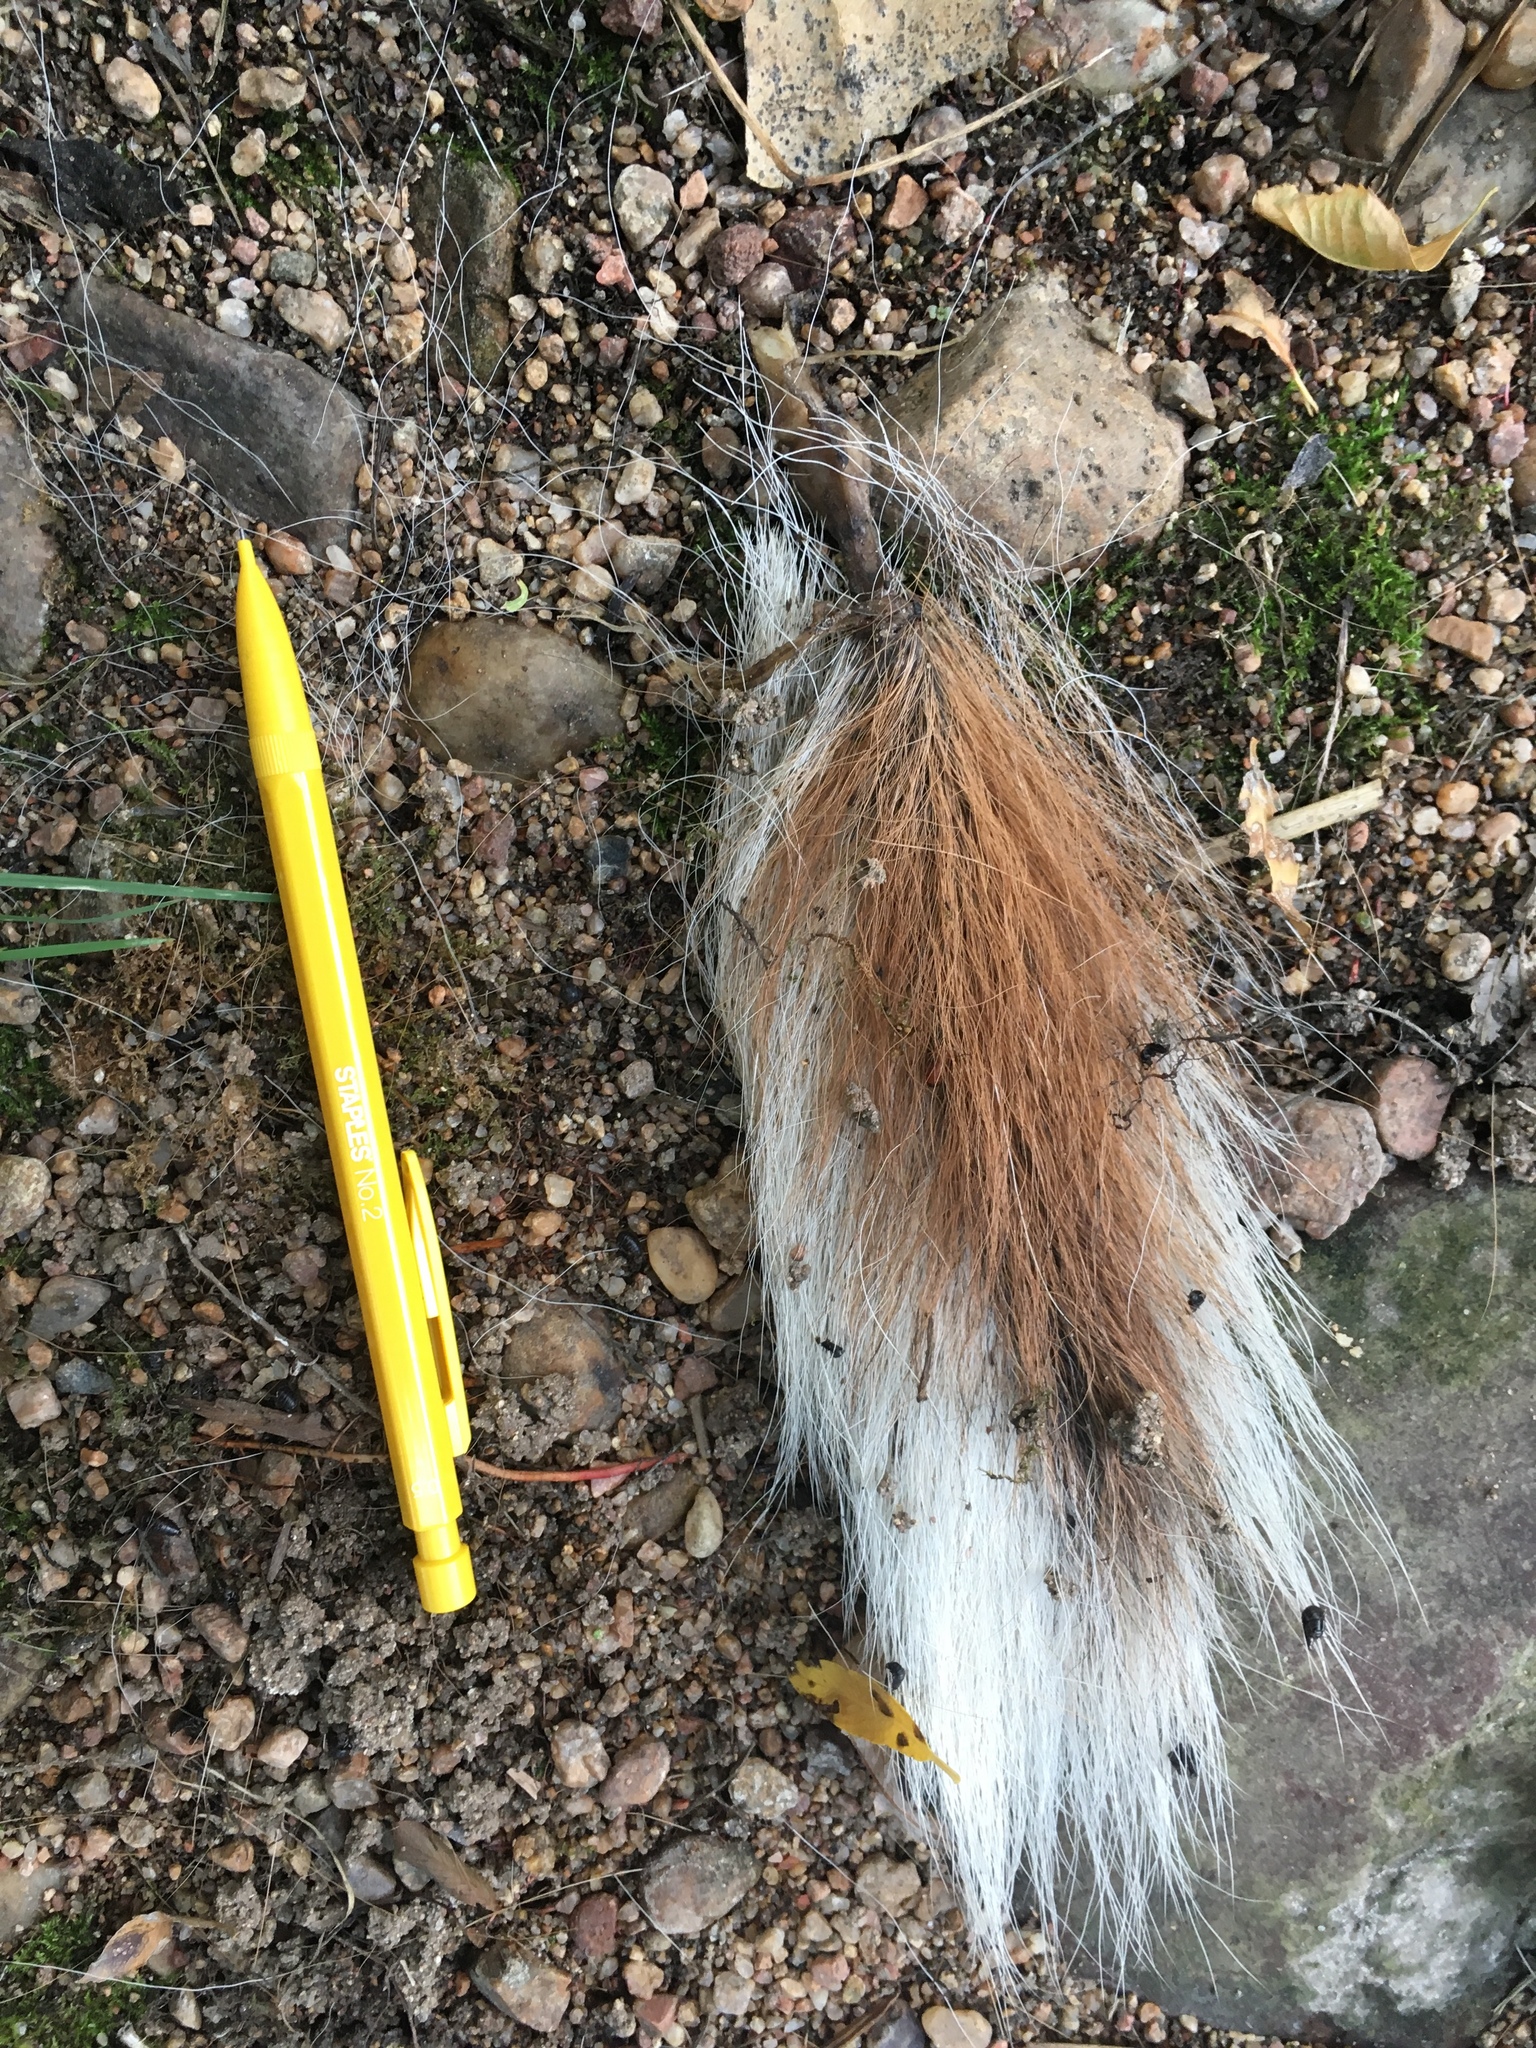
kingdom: Animalia
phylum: Chordata
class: Mammalia
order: Artiodactyla
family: Cervidae
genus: Odocoileus
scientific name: Odocoileus virginianus
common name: White-tailed deer
